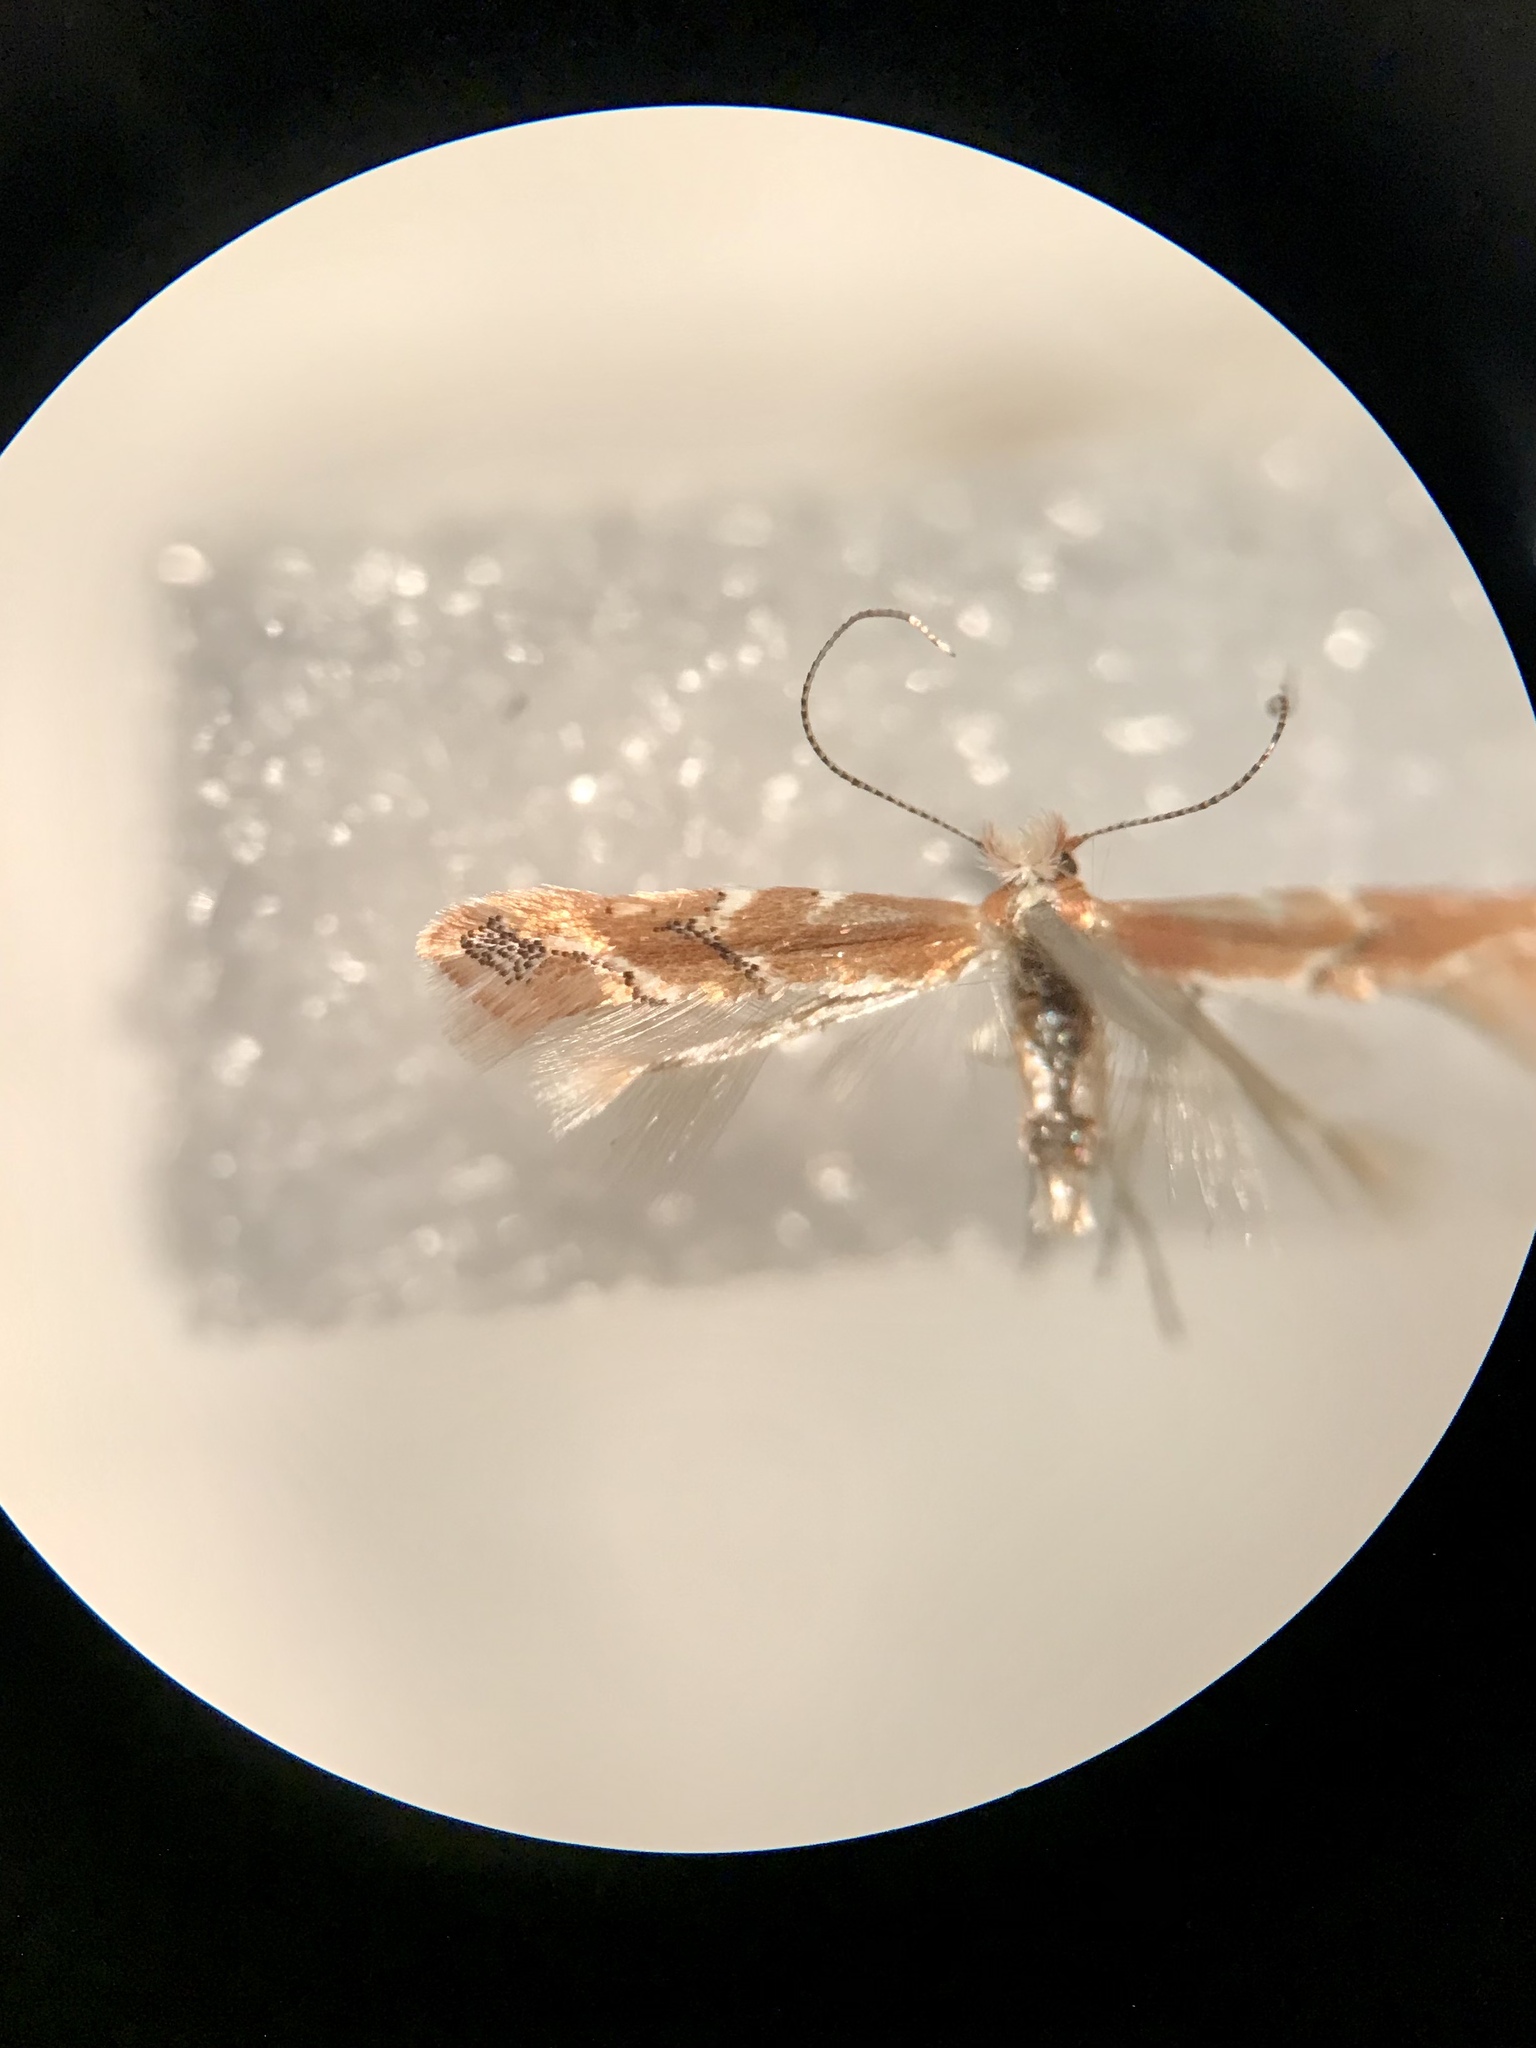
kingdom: Animalia
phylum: Arthropoda
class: Insecta
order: Lepidoptera
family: Gracillariidae
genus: Cameraria
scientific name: Cameraria mediodorsella
